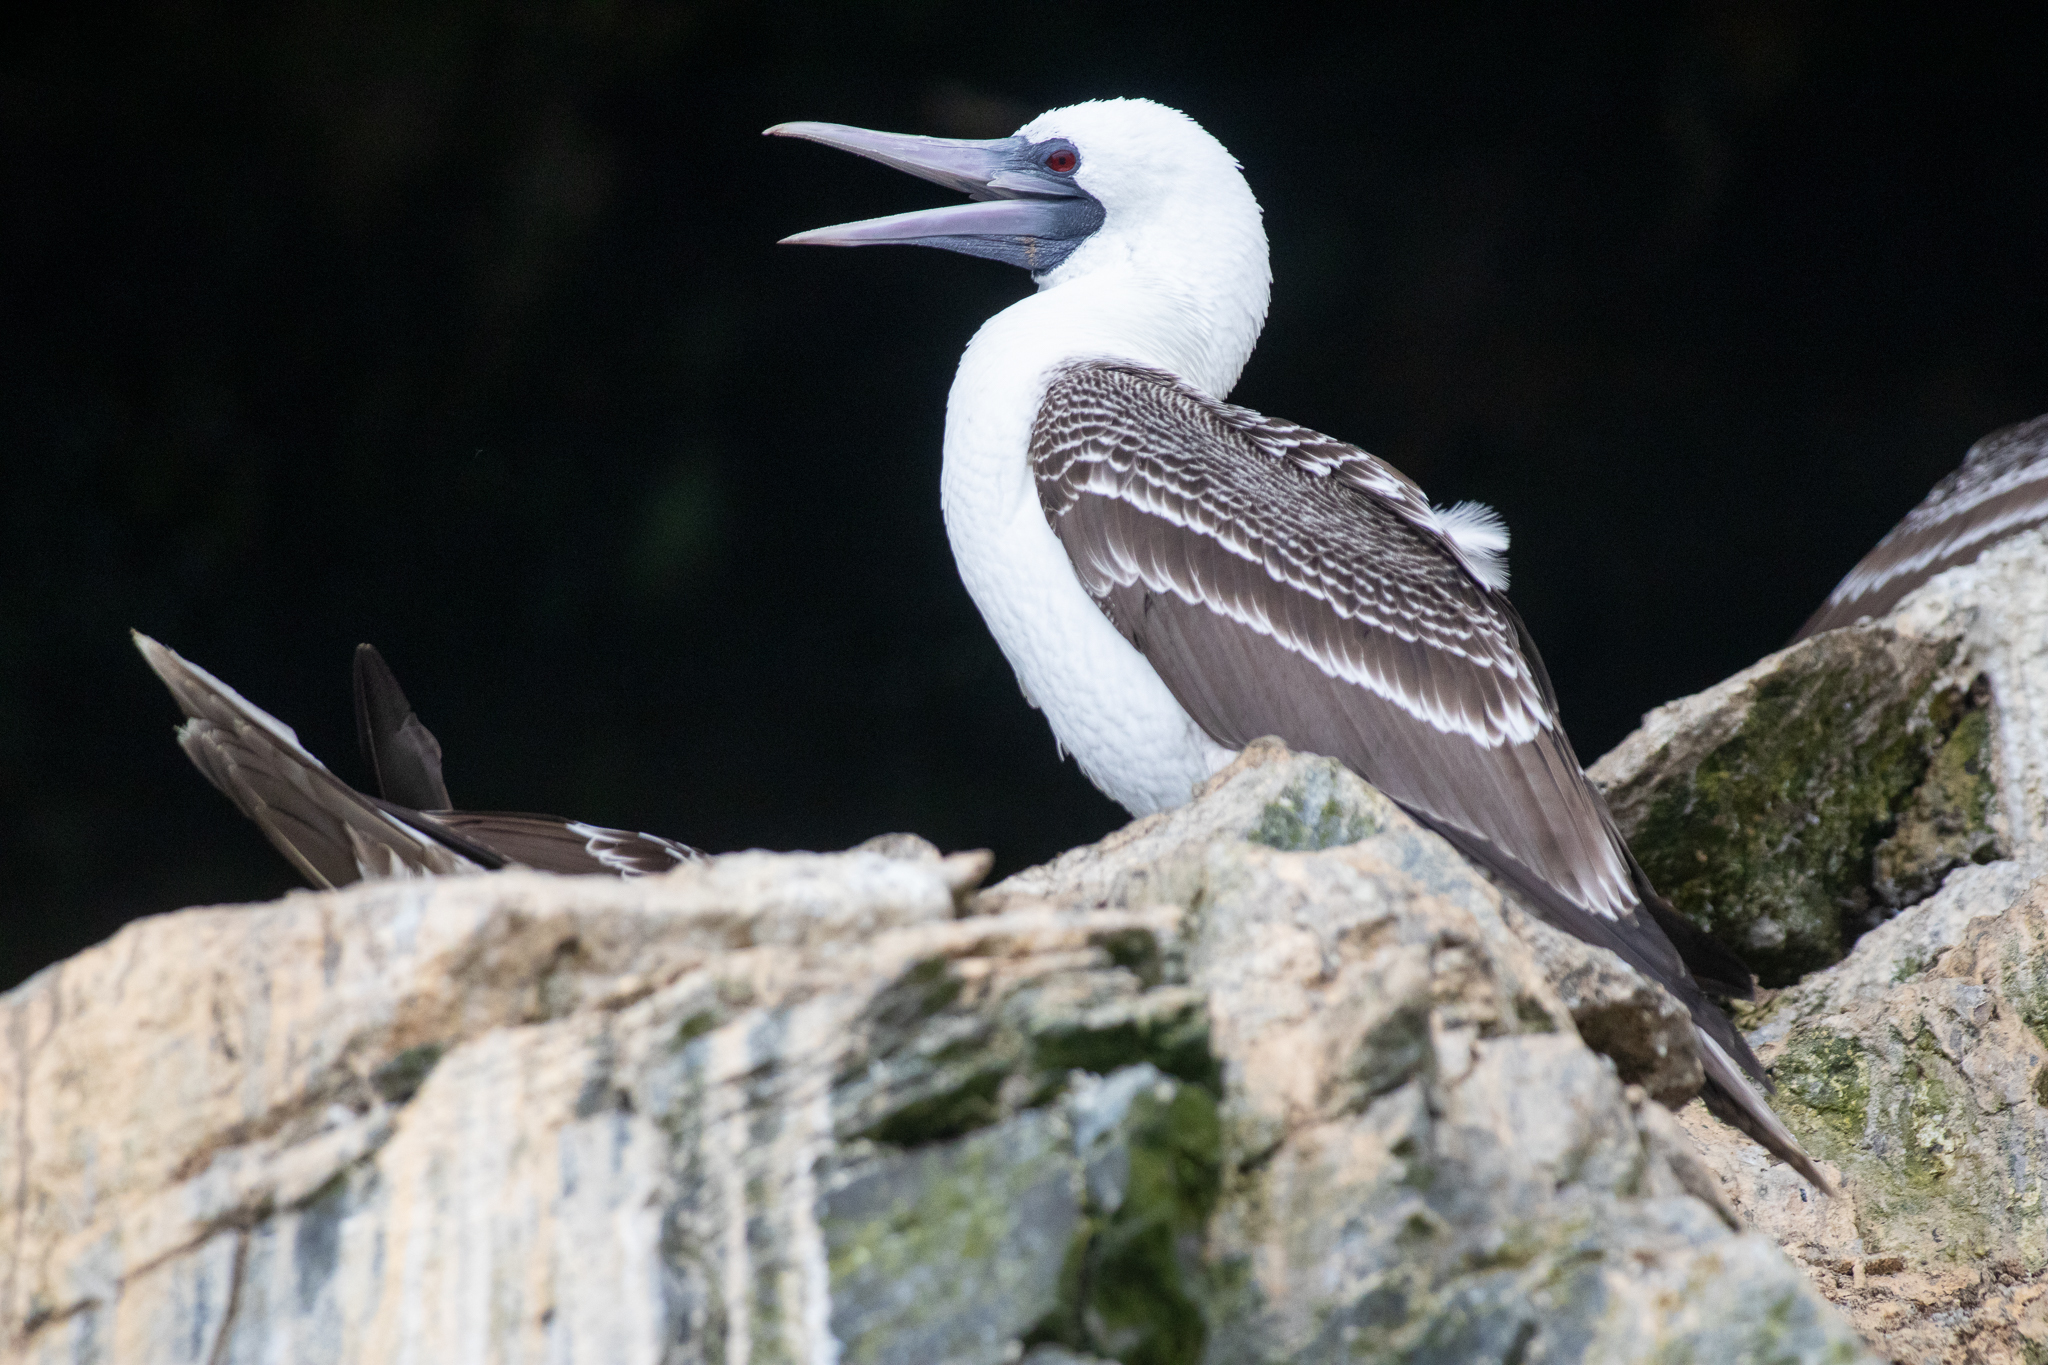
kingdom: Animalia
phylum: Chordata
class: Aves
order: Suliformes
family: Sulidae
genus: Sula
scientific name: Sula variegata
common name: Peruvian booby
